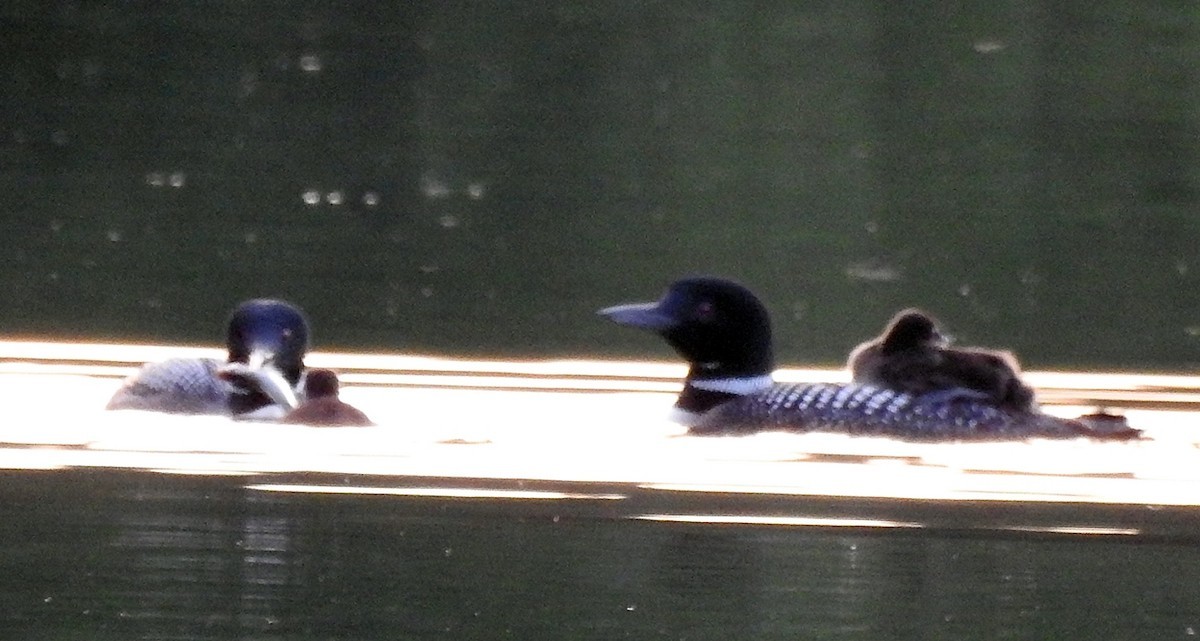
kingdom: Animalia
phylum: Chordata
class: Aves
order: Gaviiformes
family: Gaviidae
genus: Gavia
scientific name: Gavia immer
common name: Common loon
